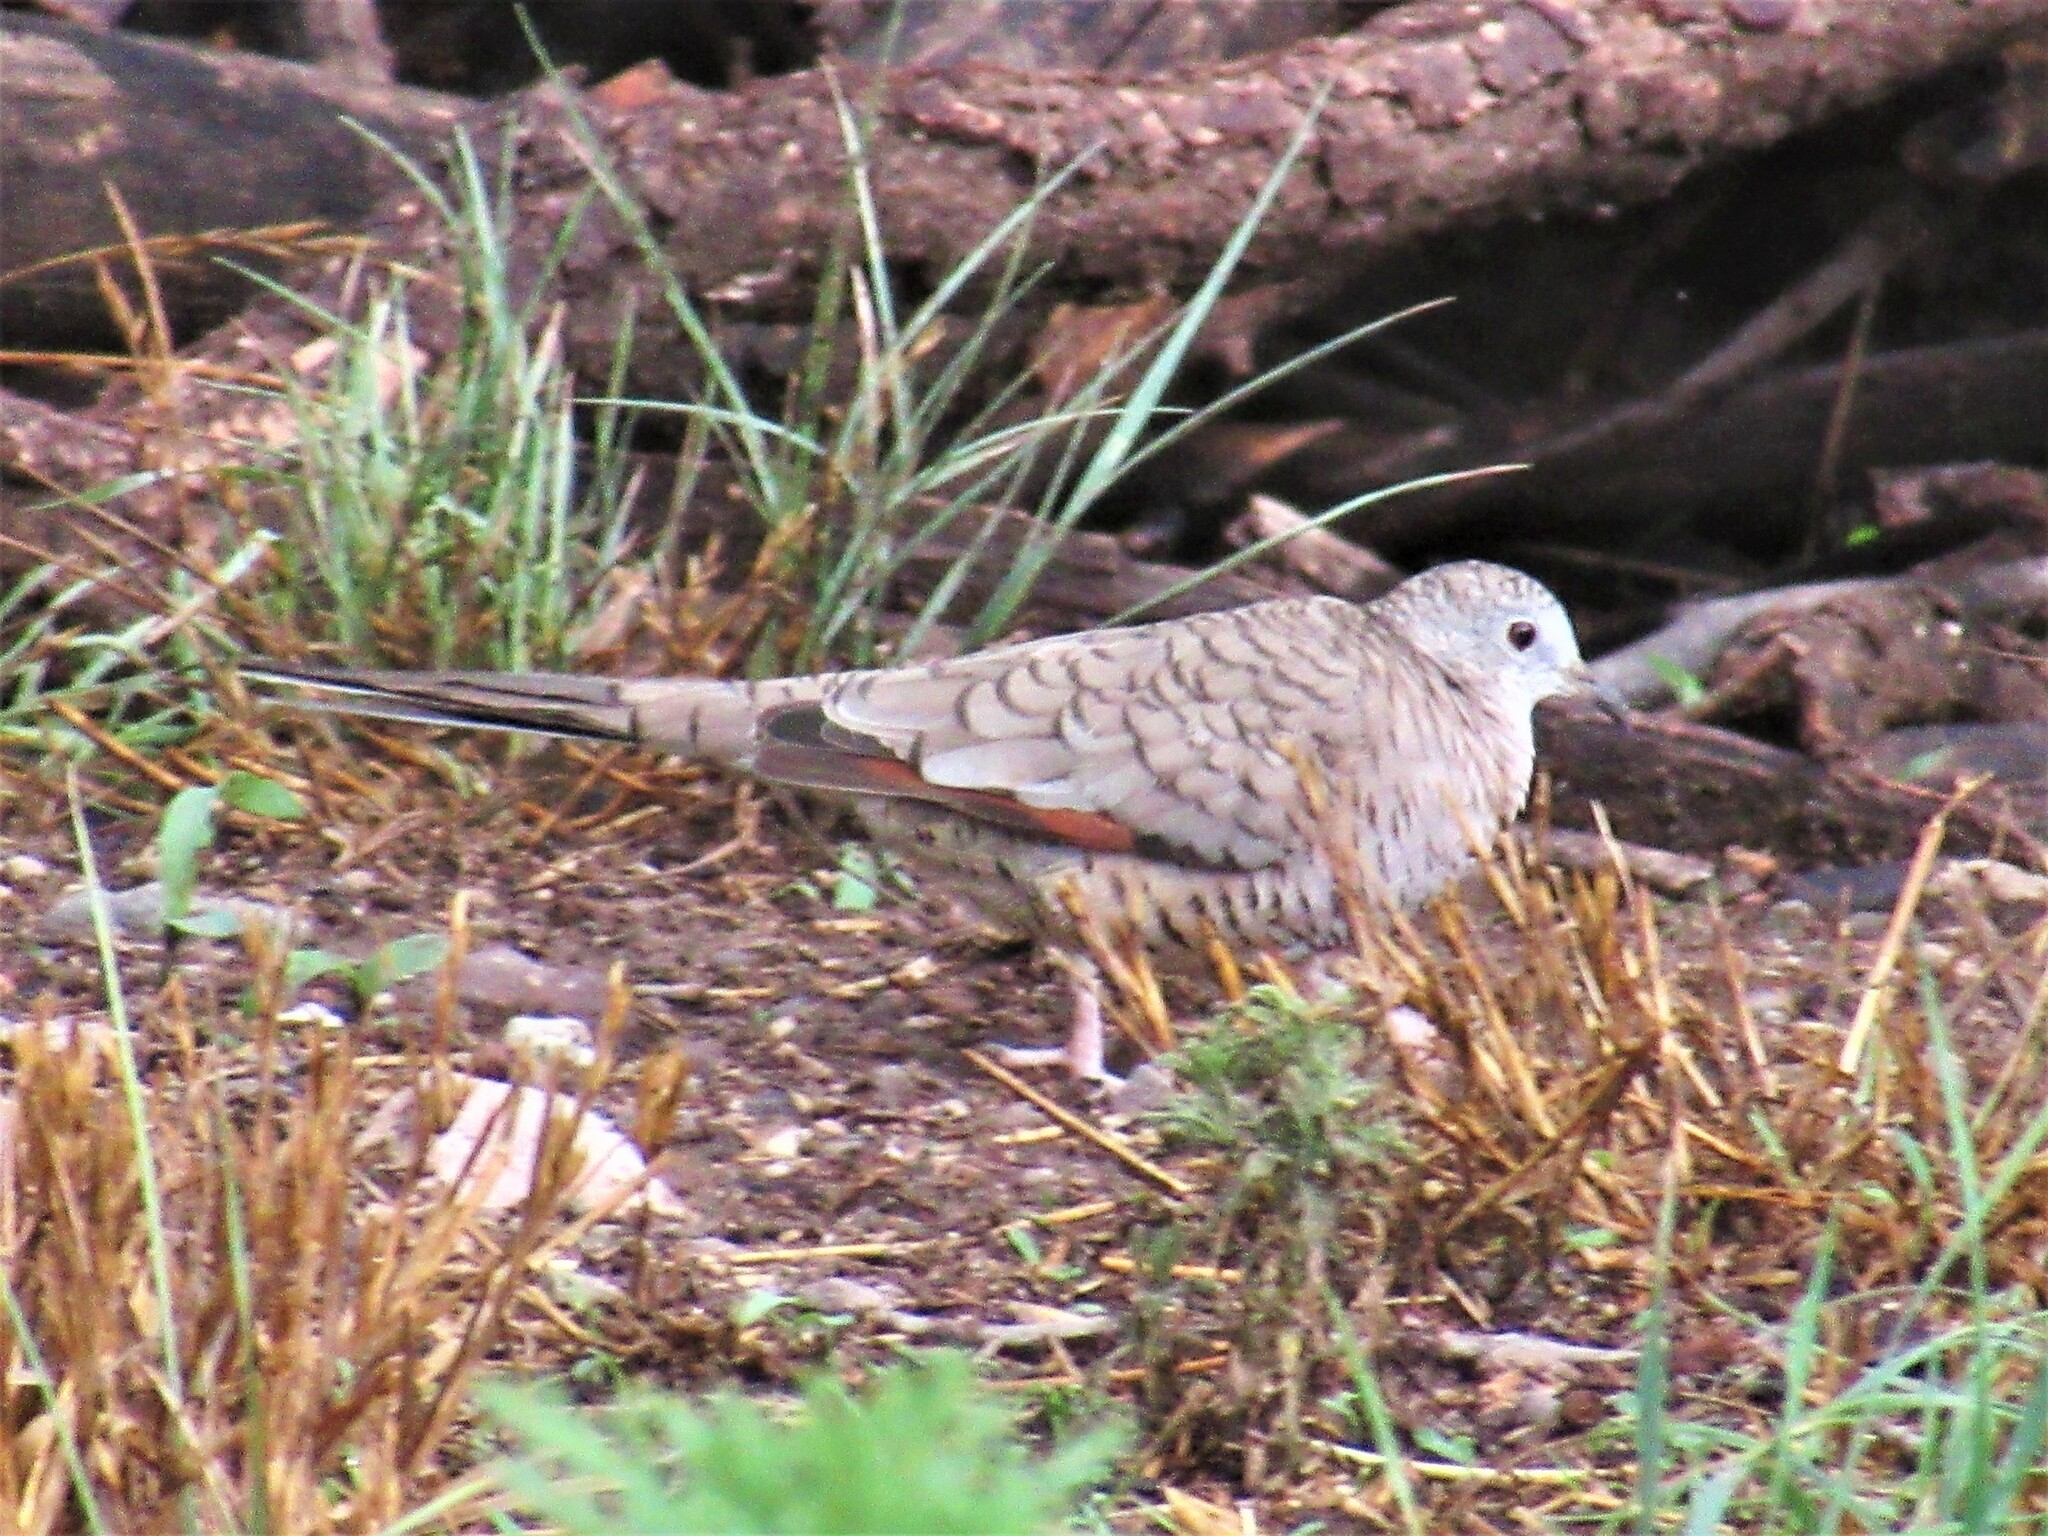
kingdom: Animalia
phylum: Chordata
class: Aves
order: Columbiformes
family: Columbidae
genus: Columbina
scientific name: Columbina inca
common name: Inca dove
